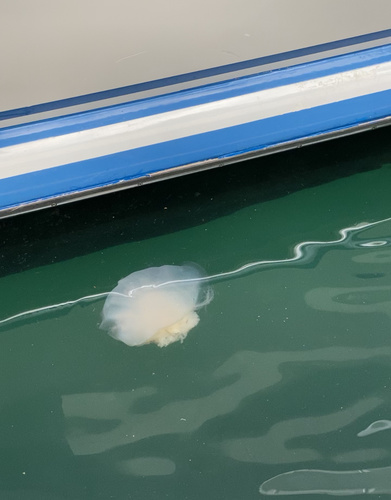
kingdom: Animalia
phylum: Cnidaria
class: Scyphozoa
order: Semaeostomeae
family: Cyaneidae
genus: Cyanea
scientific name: Cyanea nozakii
